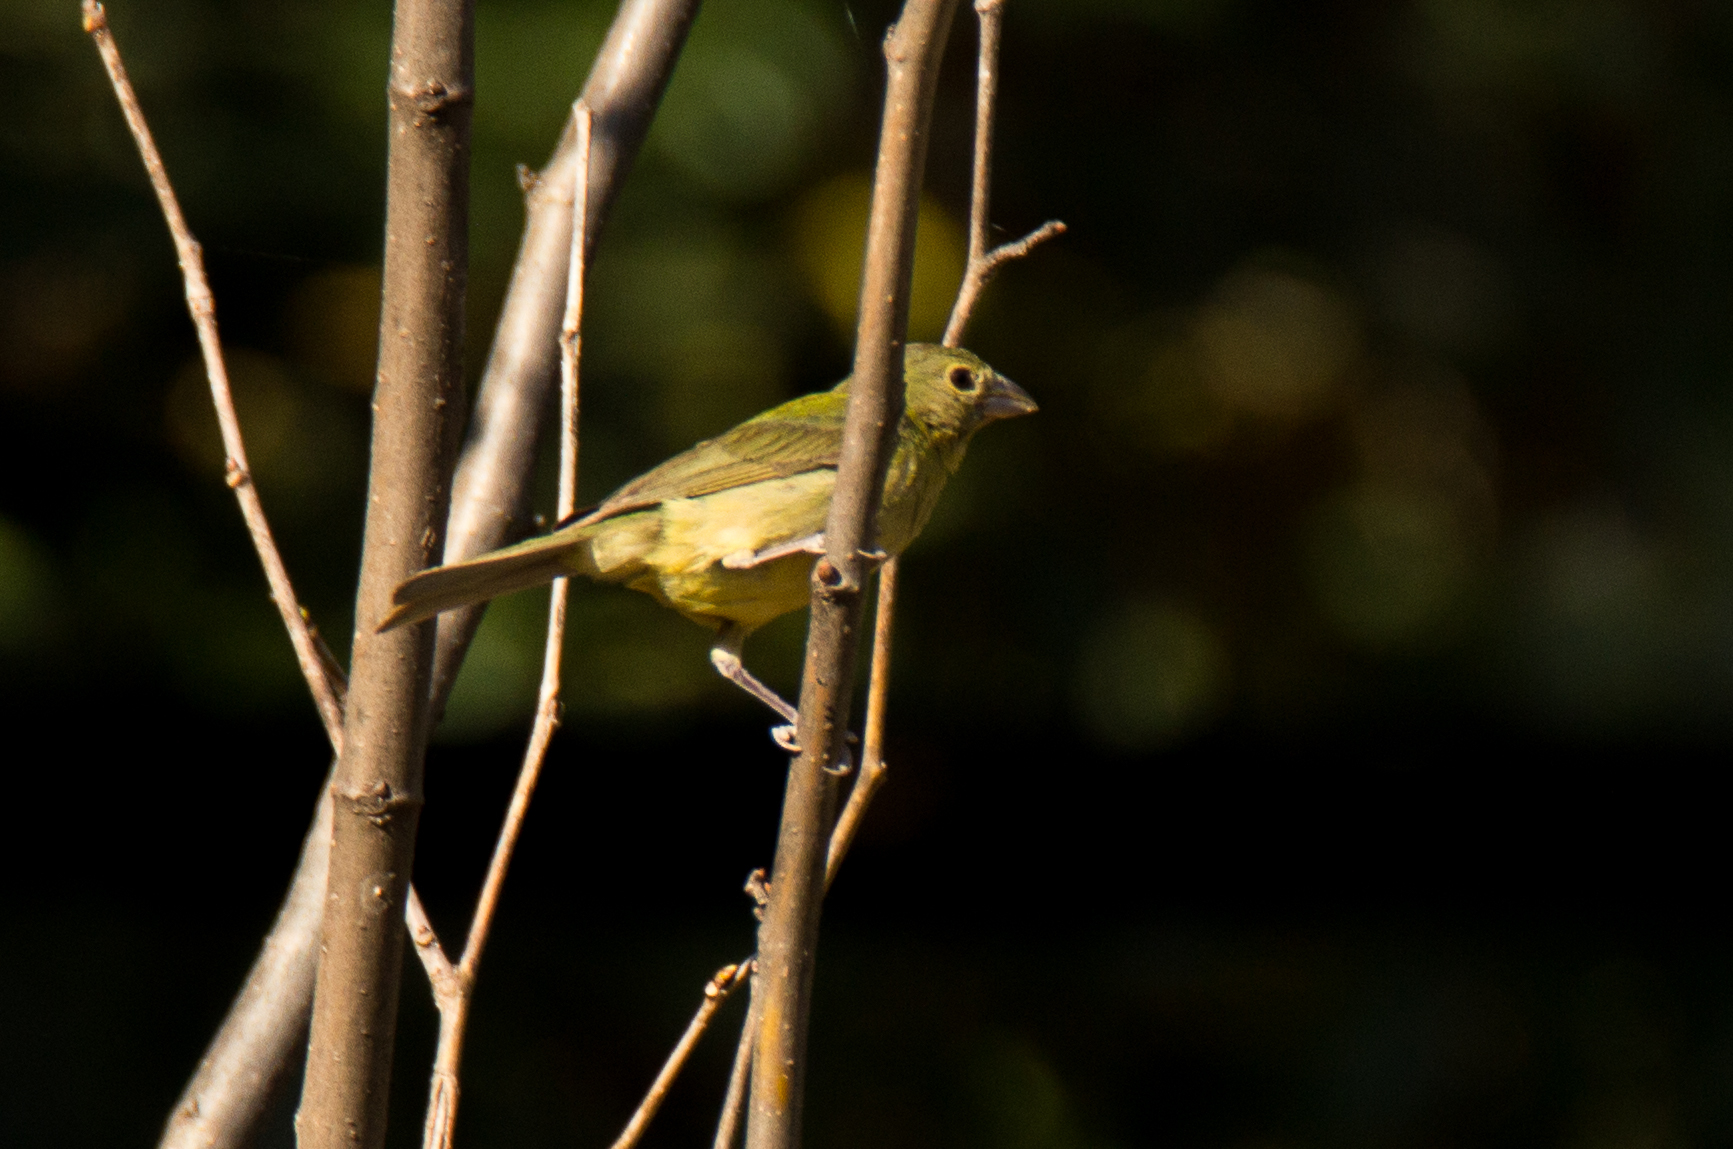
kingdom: Animalia
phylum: Chordata
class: Aves
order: Passeriformes
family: Cardinalidae
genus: Passerina
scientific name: Passerina ciris
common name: Painted bunting
